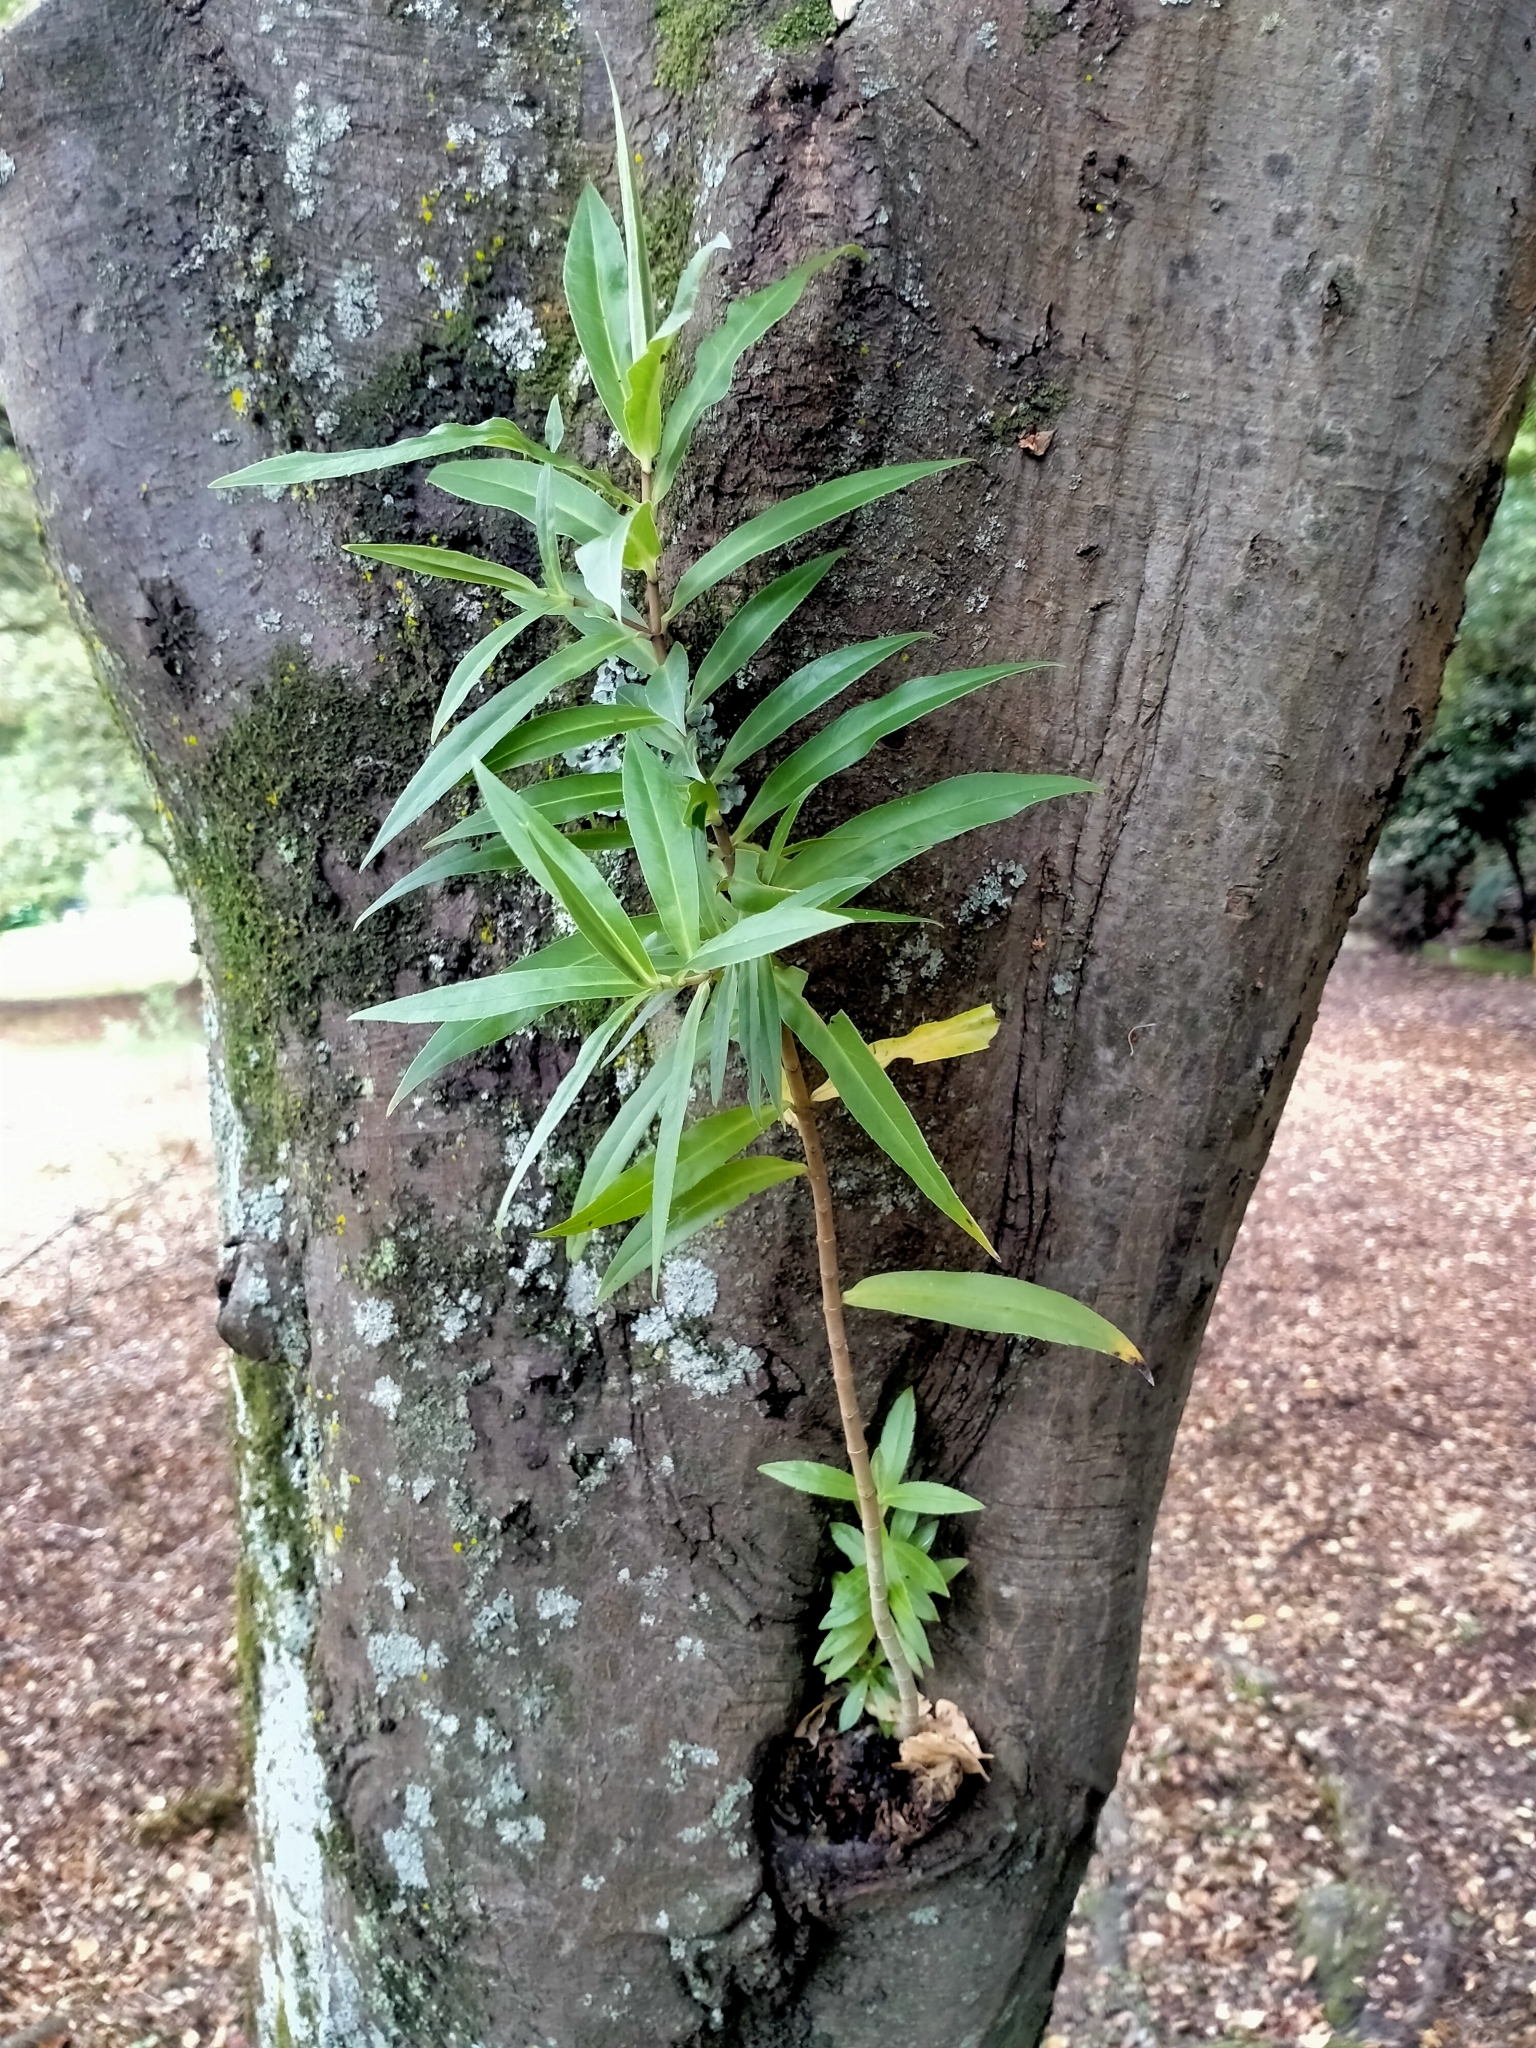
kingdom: Plantae
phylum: Tracheophyta
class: Magnoliopsida
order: Lamiales
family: Plantaginaceae
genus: Veronica
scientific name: Veronica salicifolia
